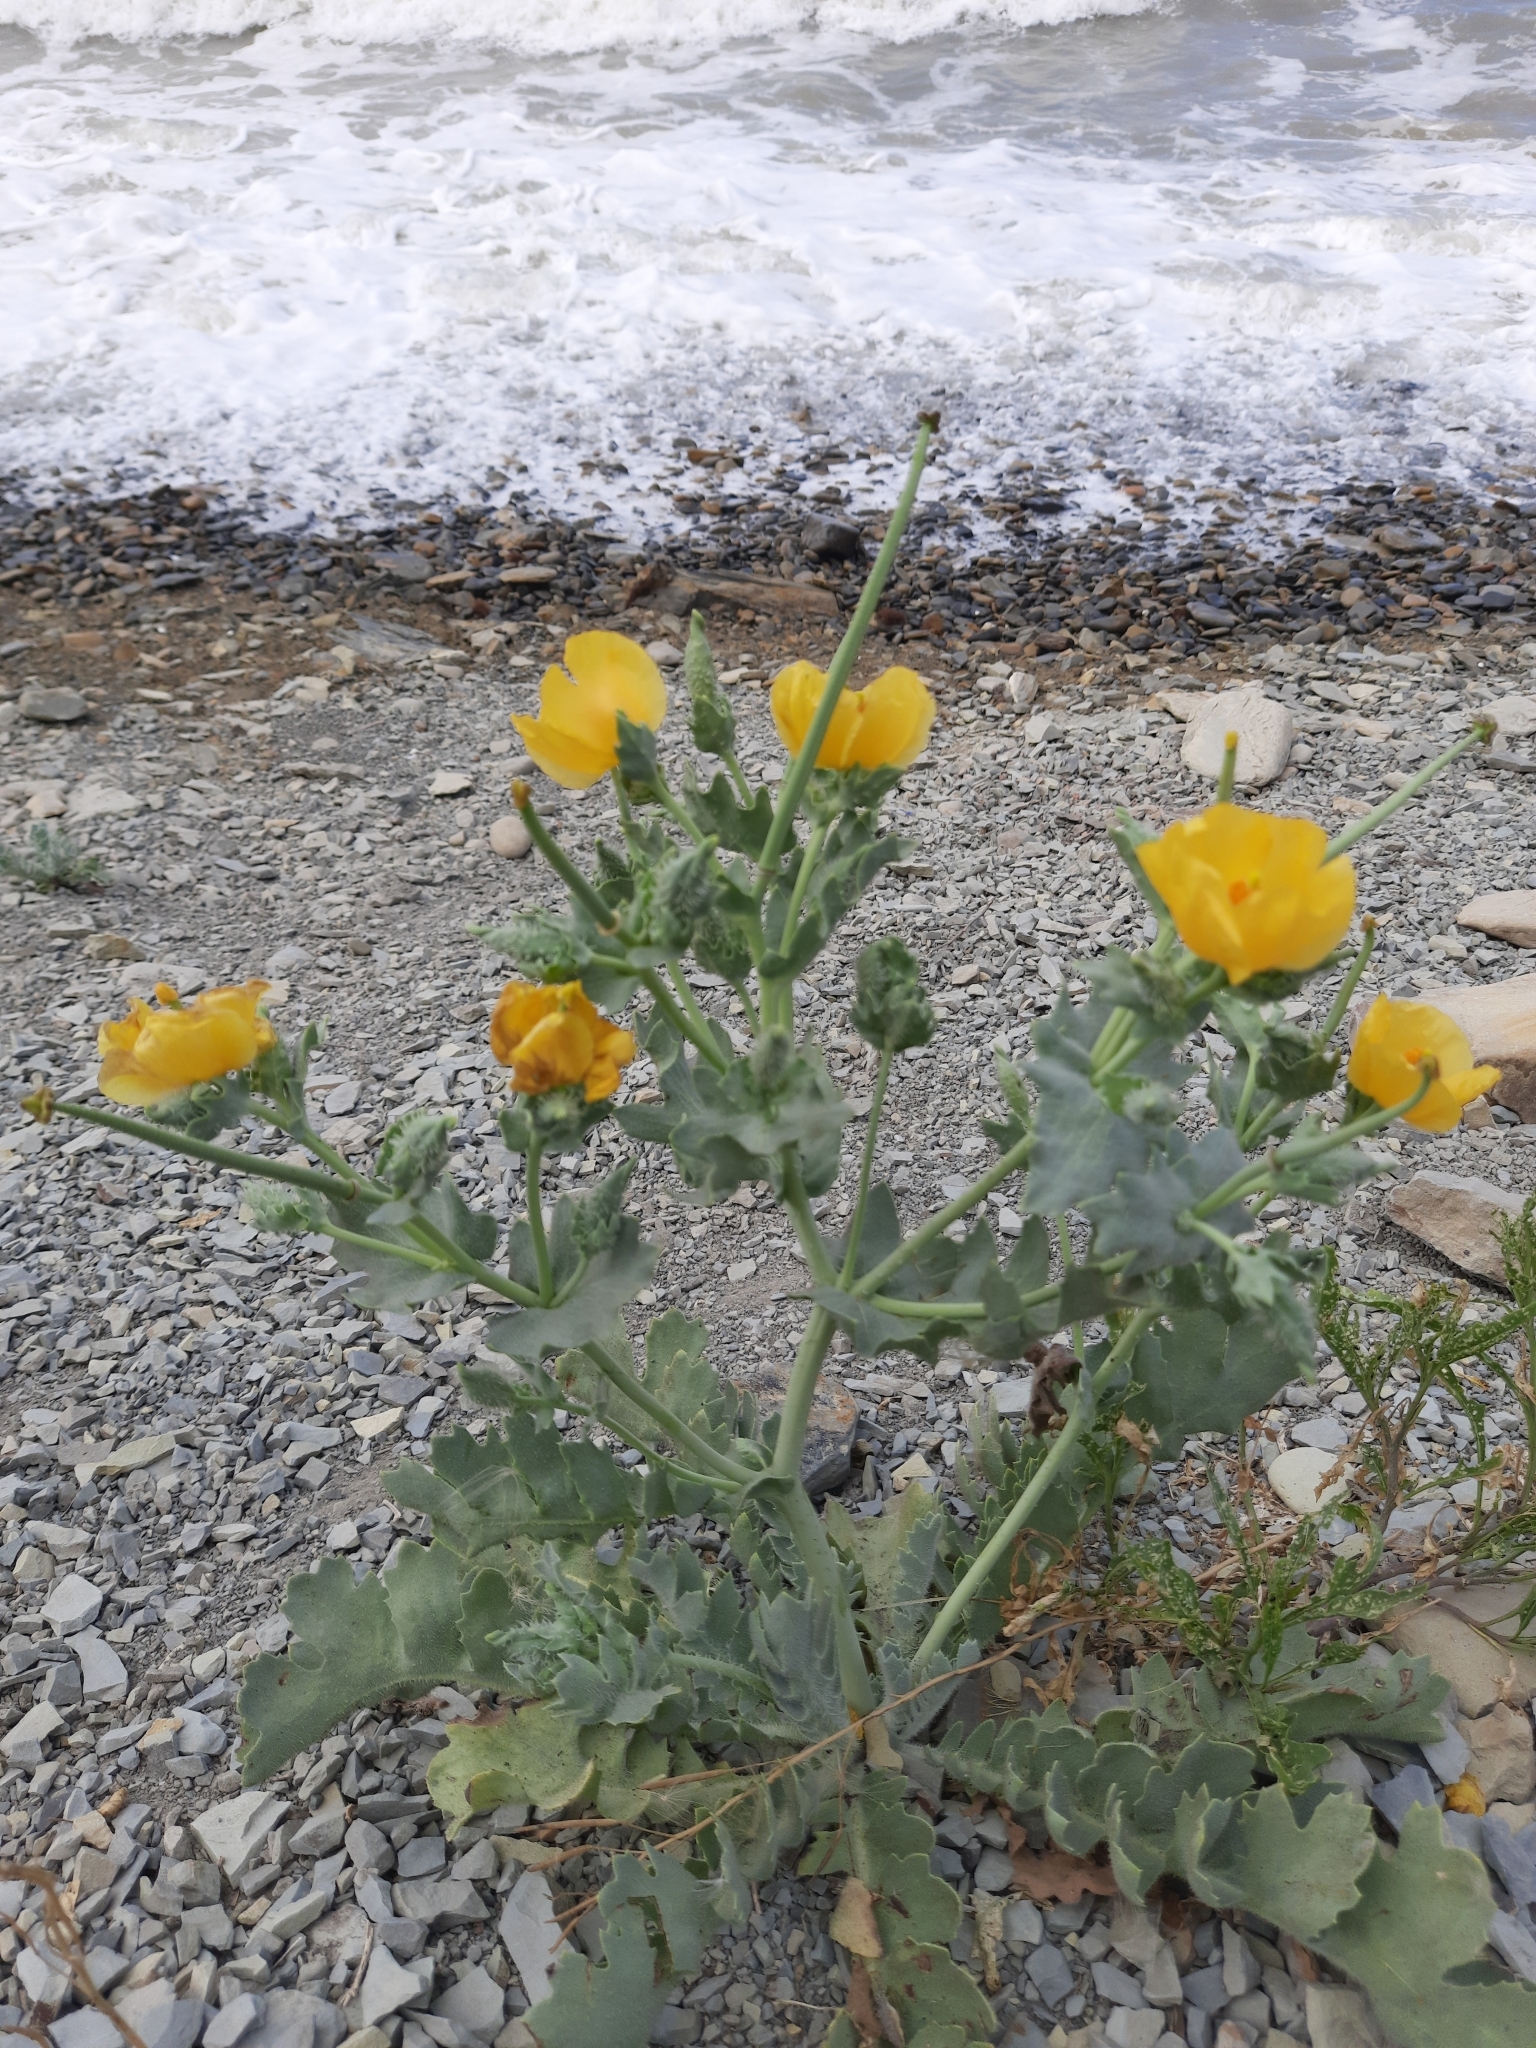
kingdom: Plantae
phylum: Tracheophyta
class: Magnoliopsida
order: Ranunculales
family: Papaveraceae
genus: Glaucium
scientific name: Glaucium flavum
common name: Yellow horned-poppy
